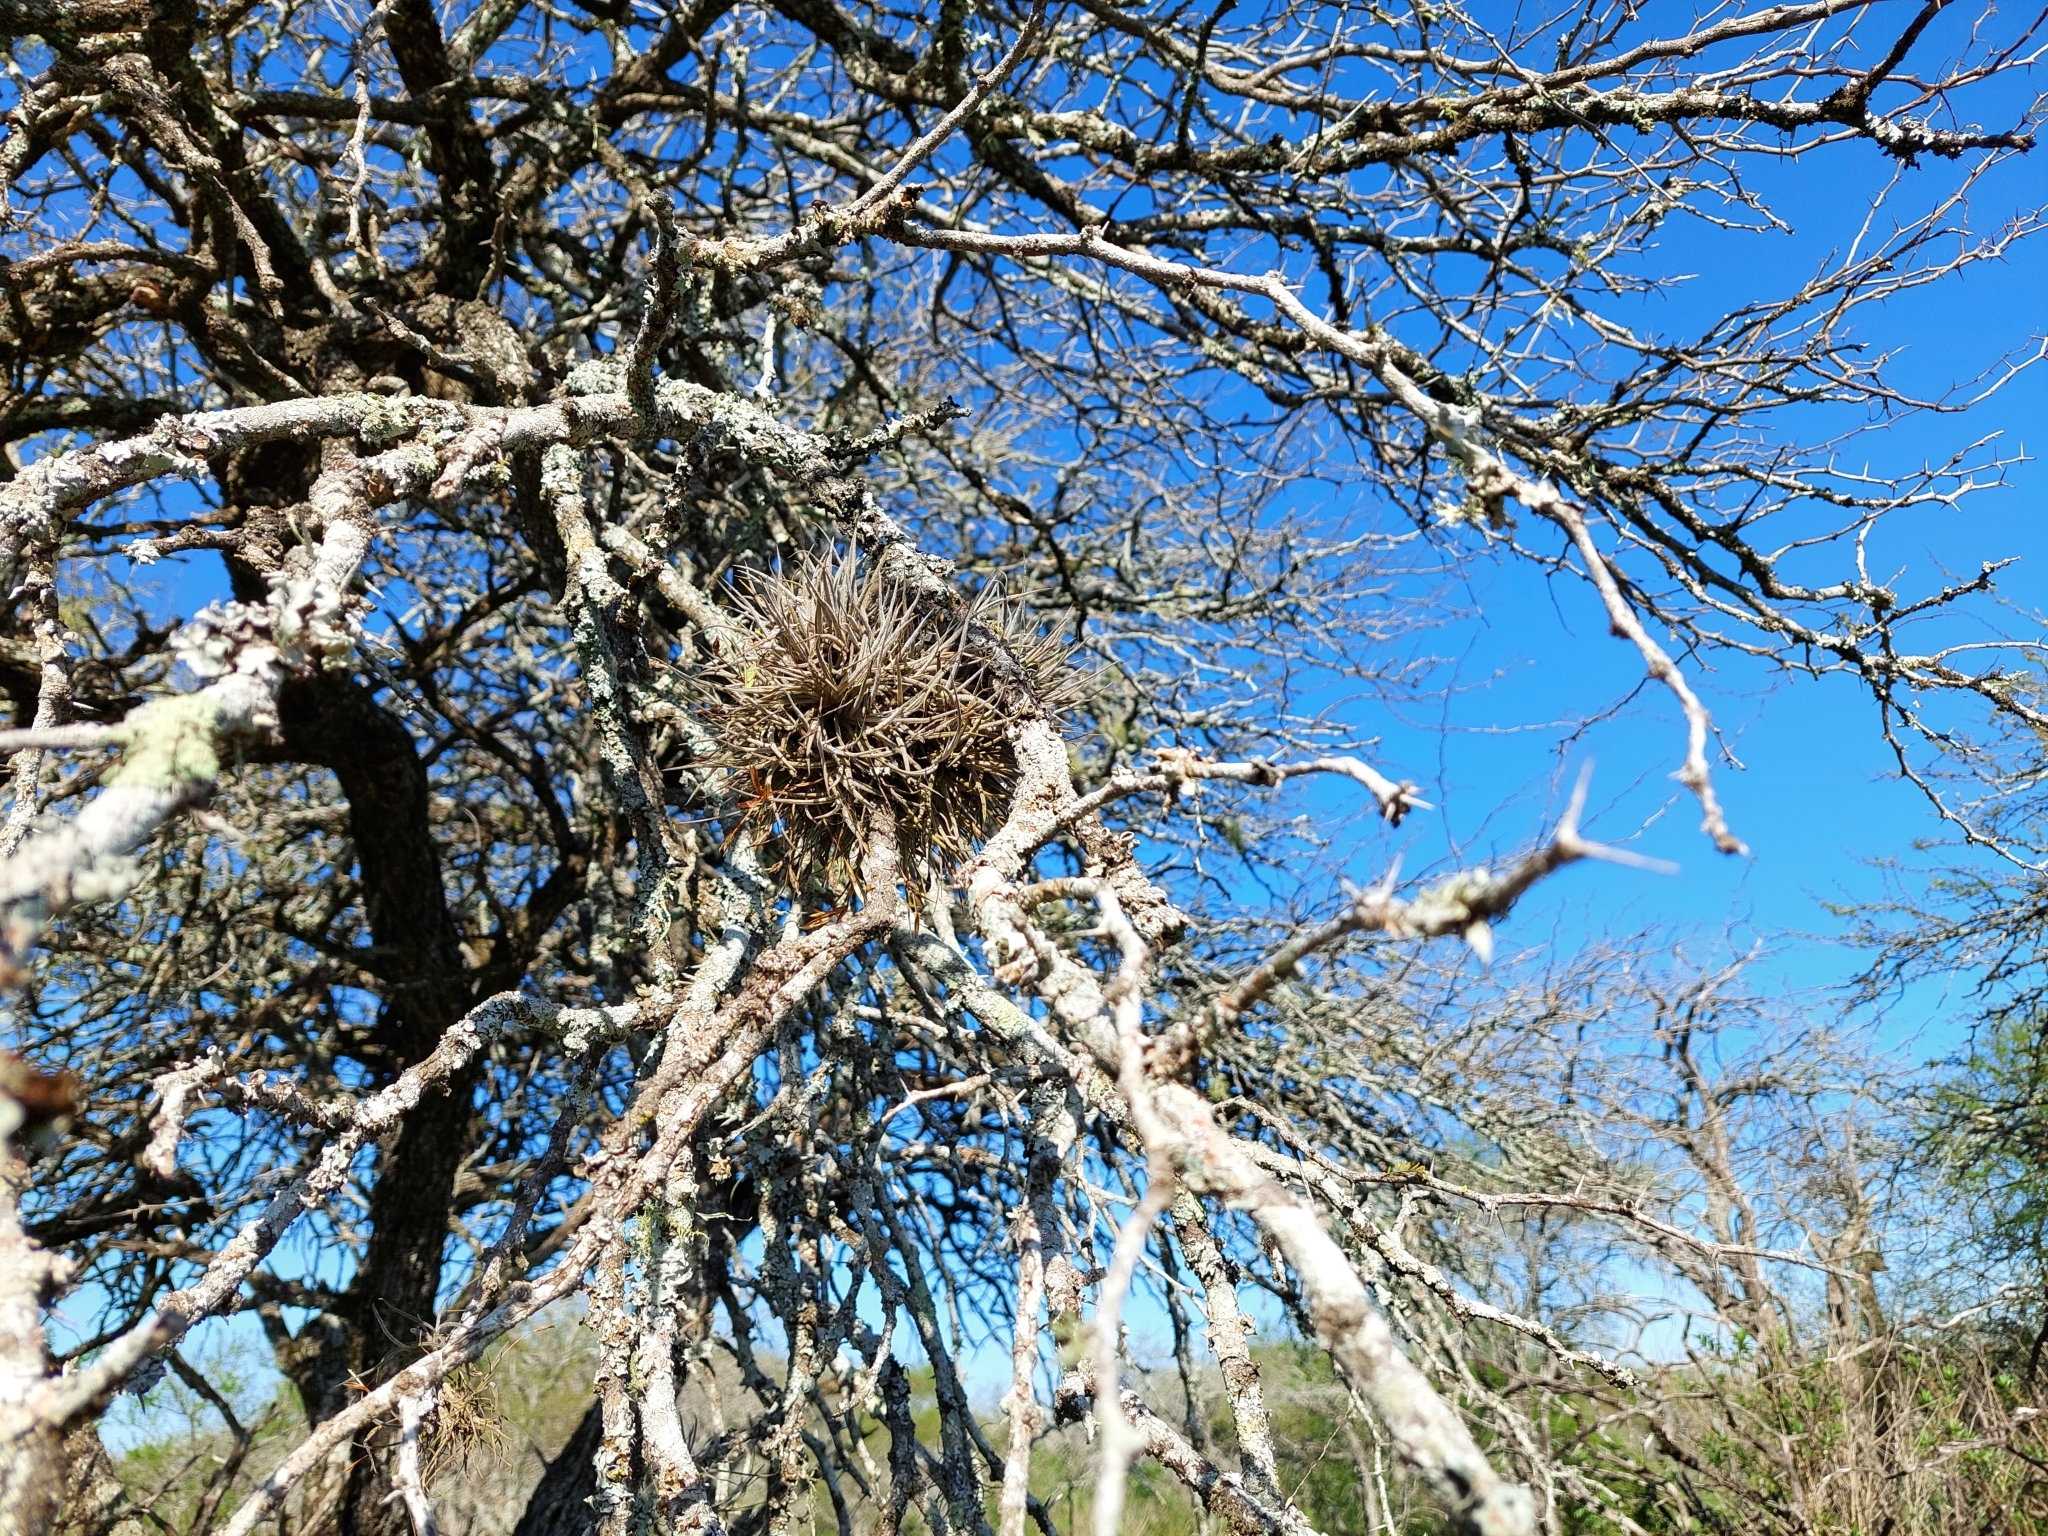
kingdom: Plantae
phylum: Tracheophyta
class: Liliopsida
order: Poales
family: Bromeliaceae
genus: Tillandsia
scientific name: Tillandsia recurvata
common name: Small ballmoss
